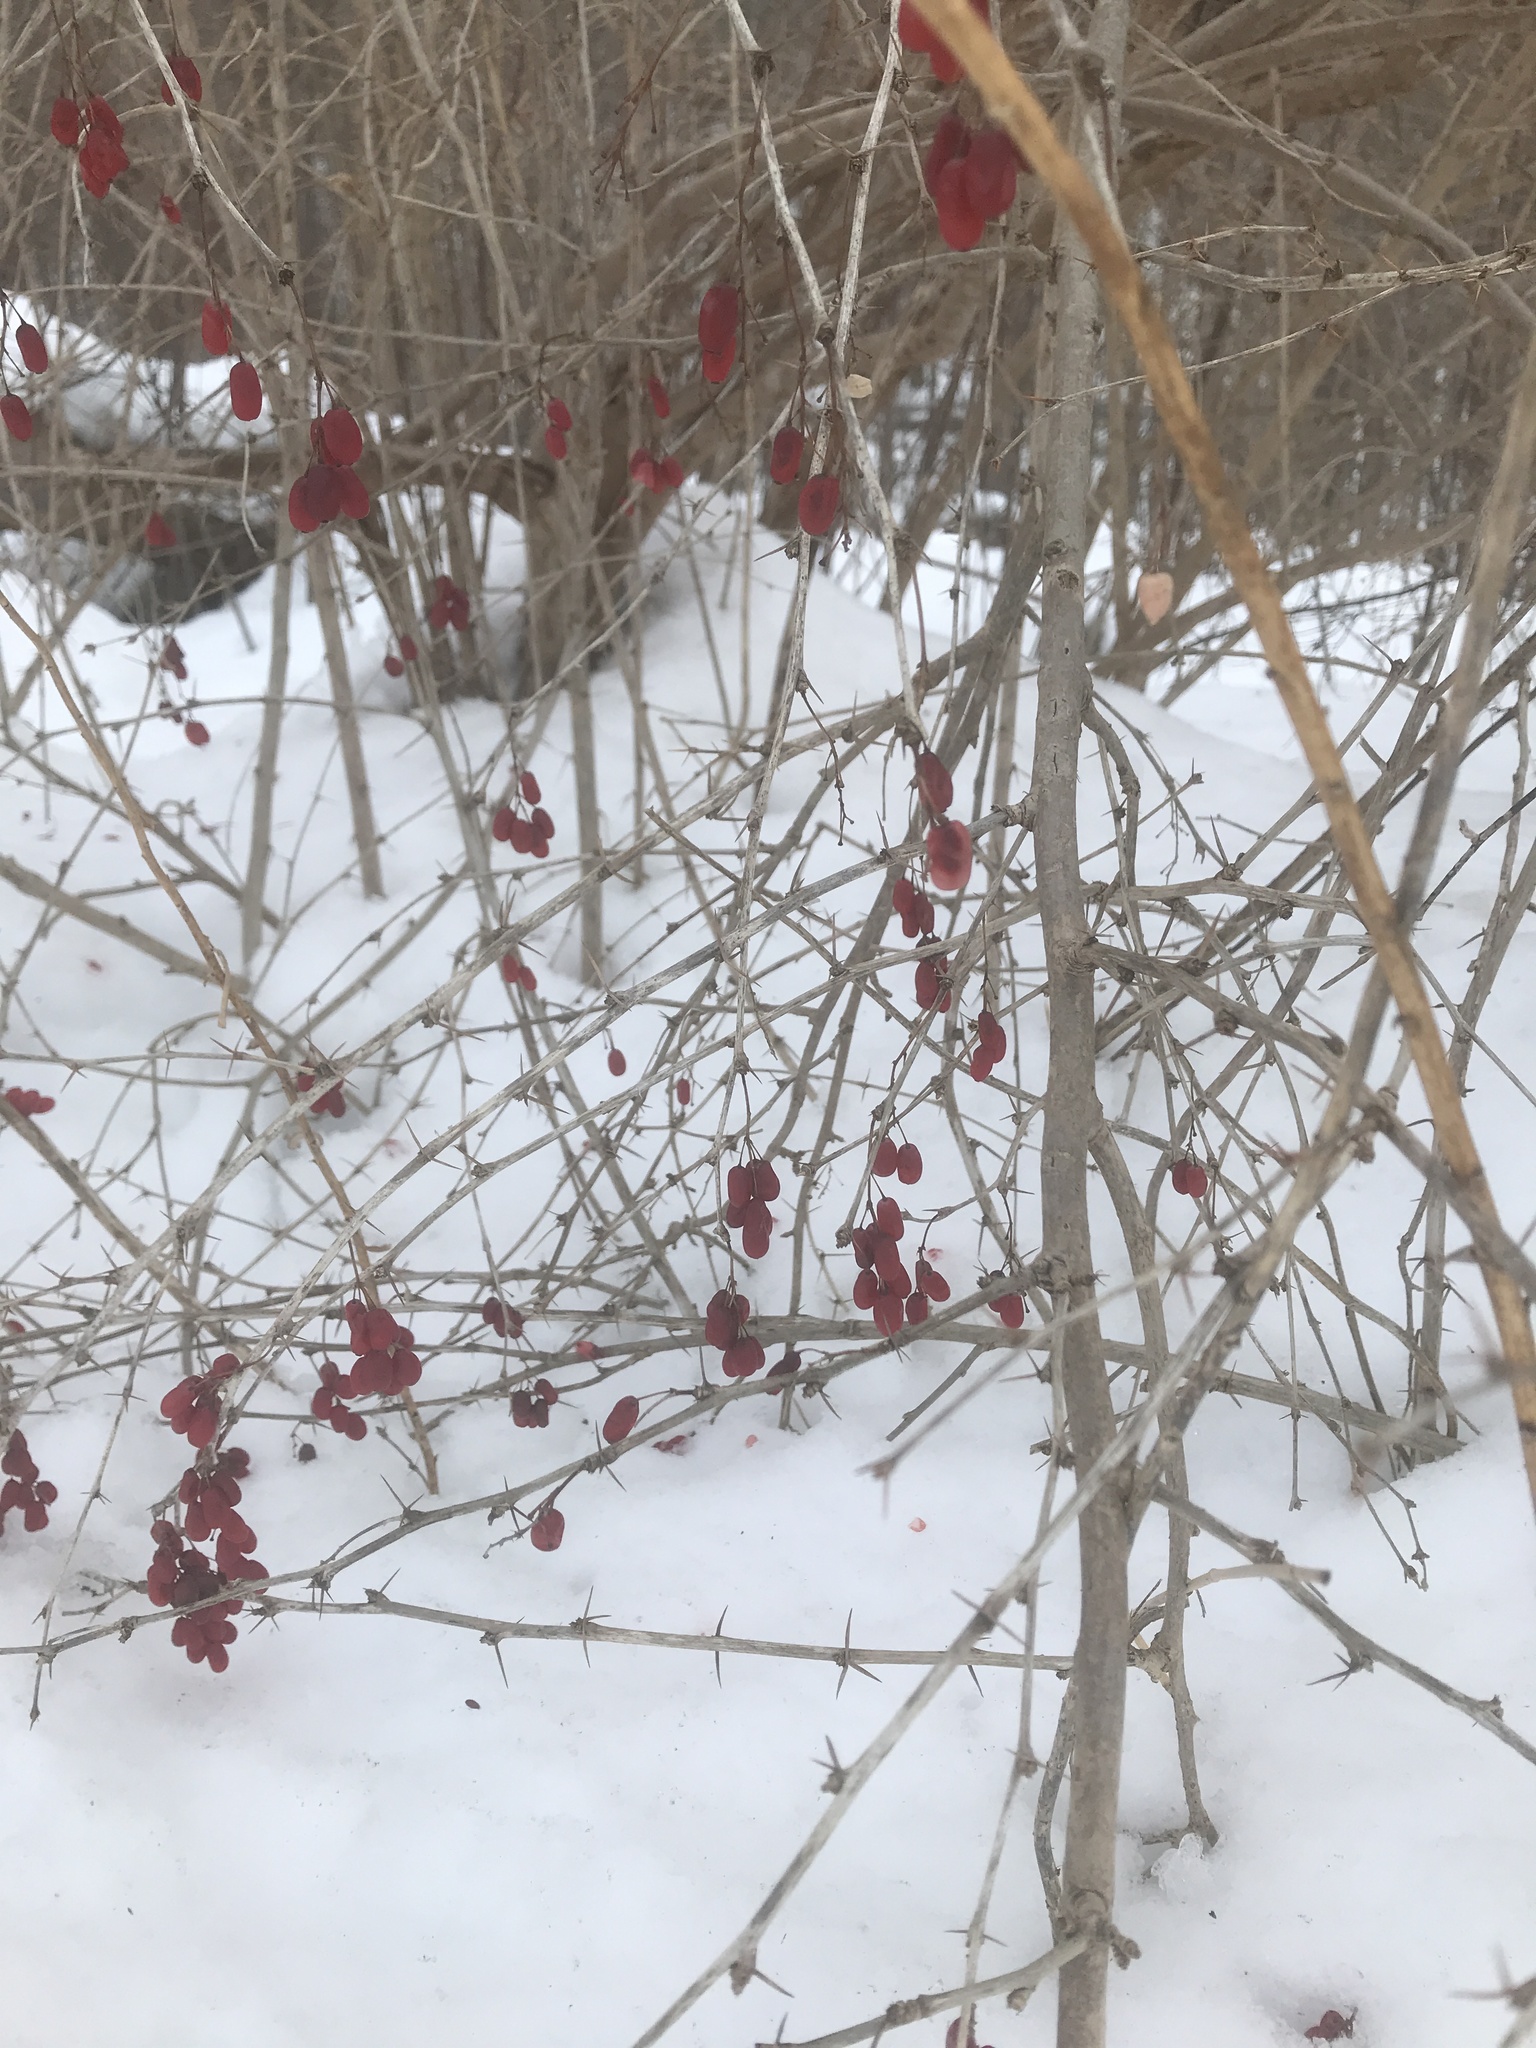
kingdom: Plantae
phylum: Tracheophyta
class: Magnoliopsida
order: Ranunculales
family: Berberidaceae
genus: Berberis
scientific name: Berberis vulgaris
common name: Barberry
